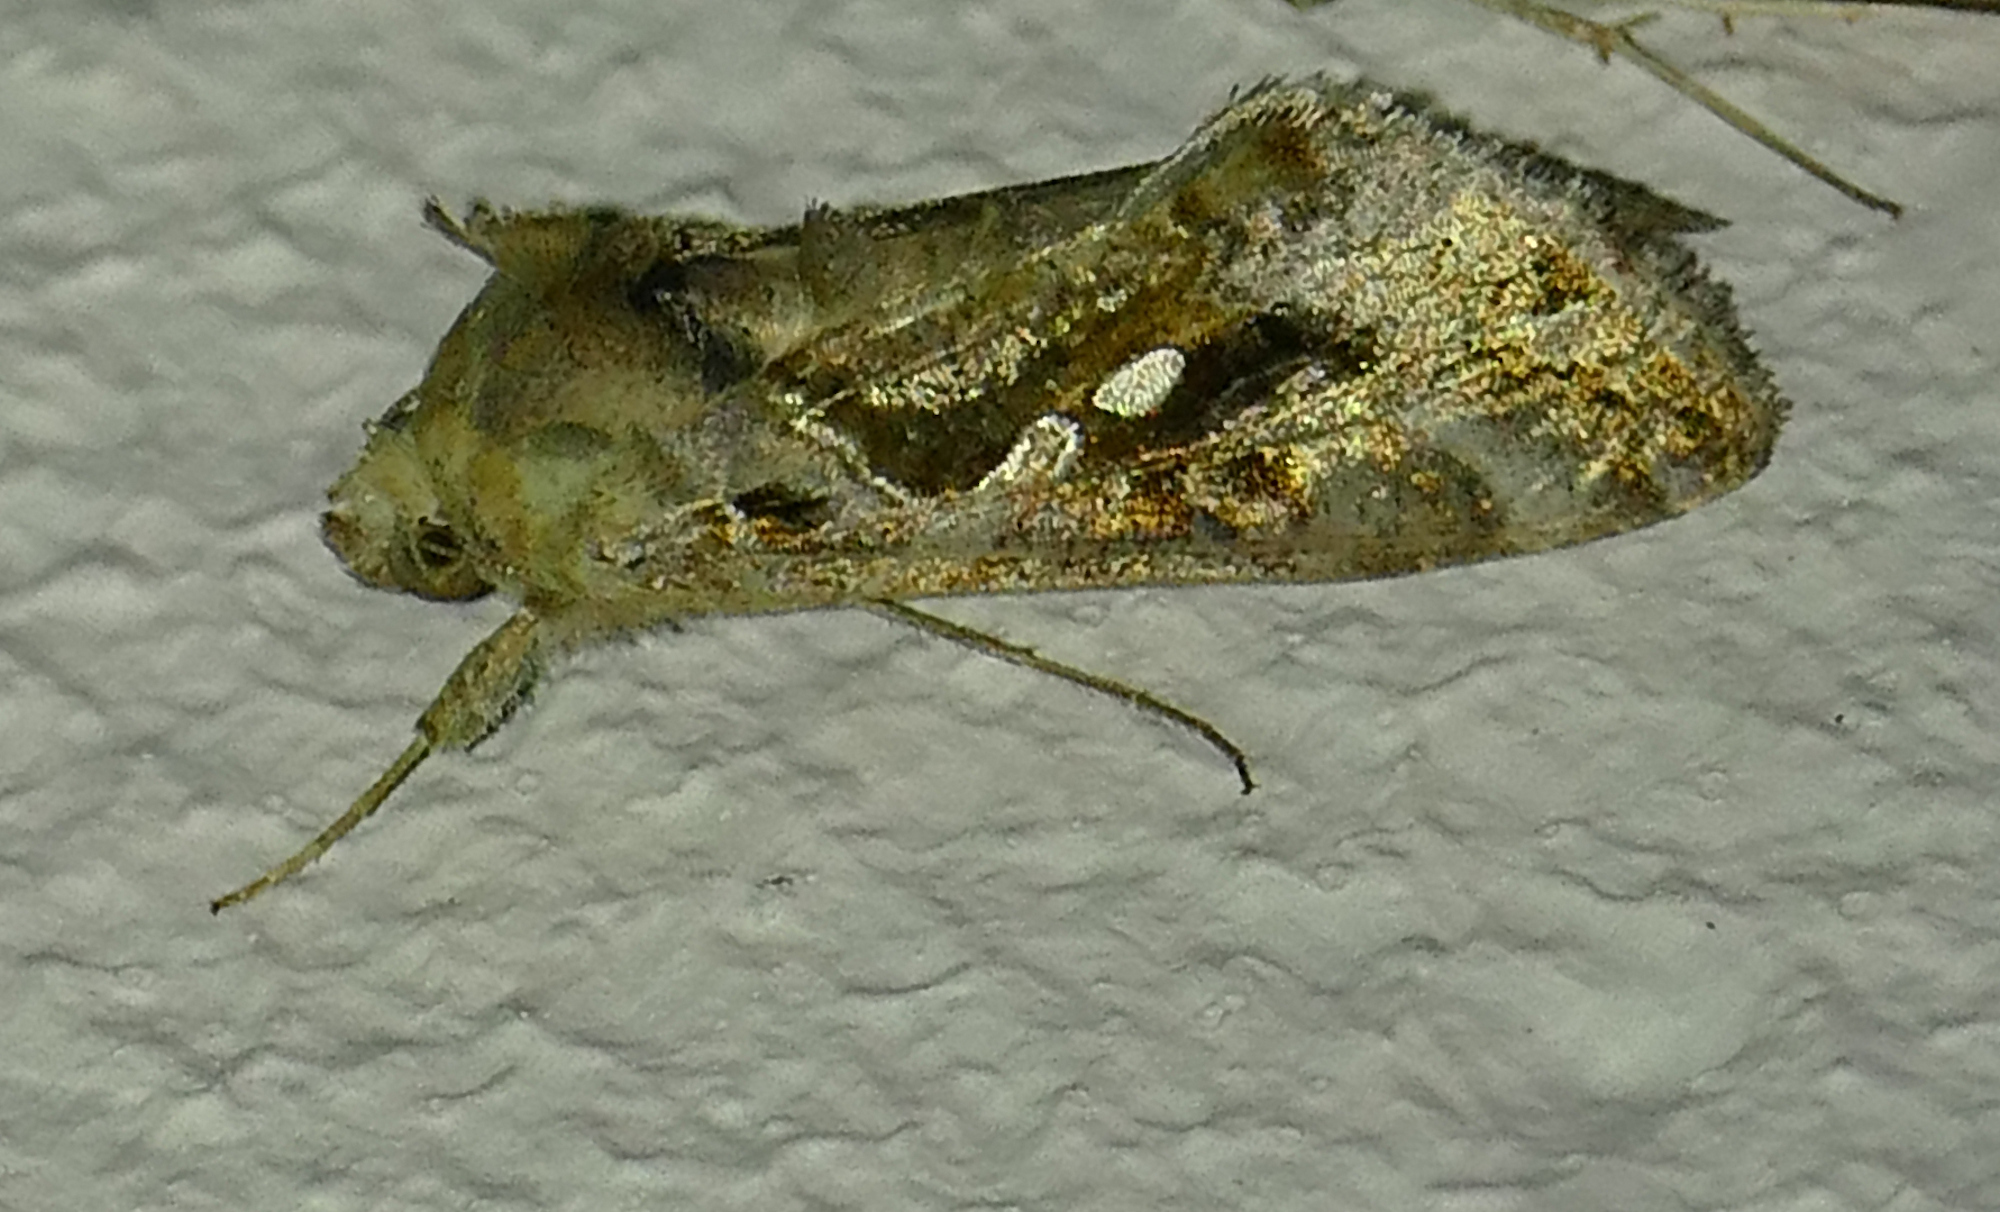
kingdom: Animalia
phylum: Arthropoda
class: Insecta
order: Lepidoptera
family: Noctuidae
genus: Chrysodeixis
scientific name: Chrysodeixis includens
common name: Cutworm moth
